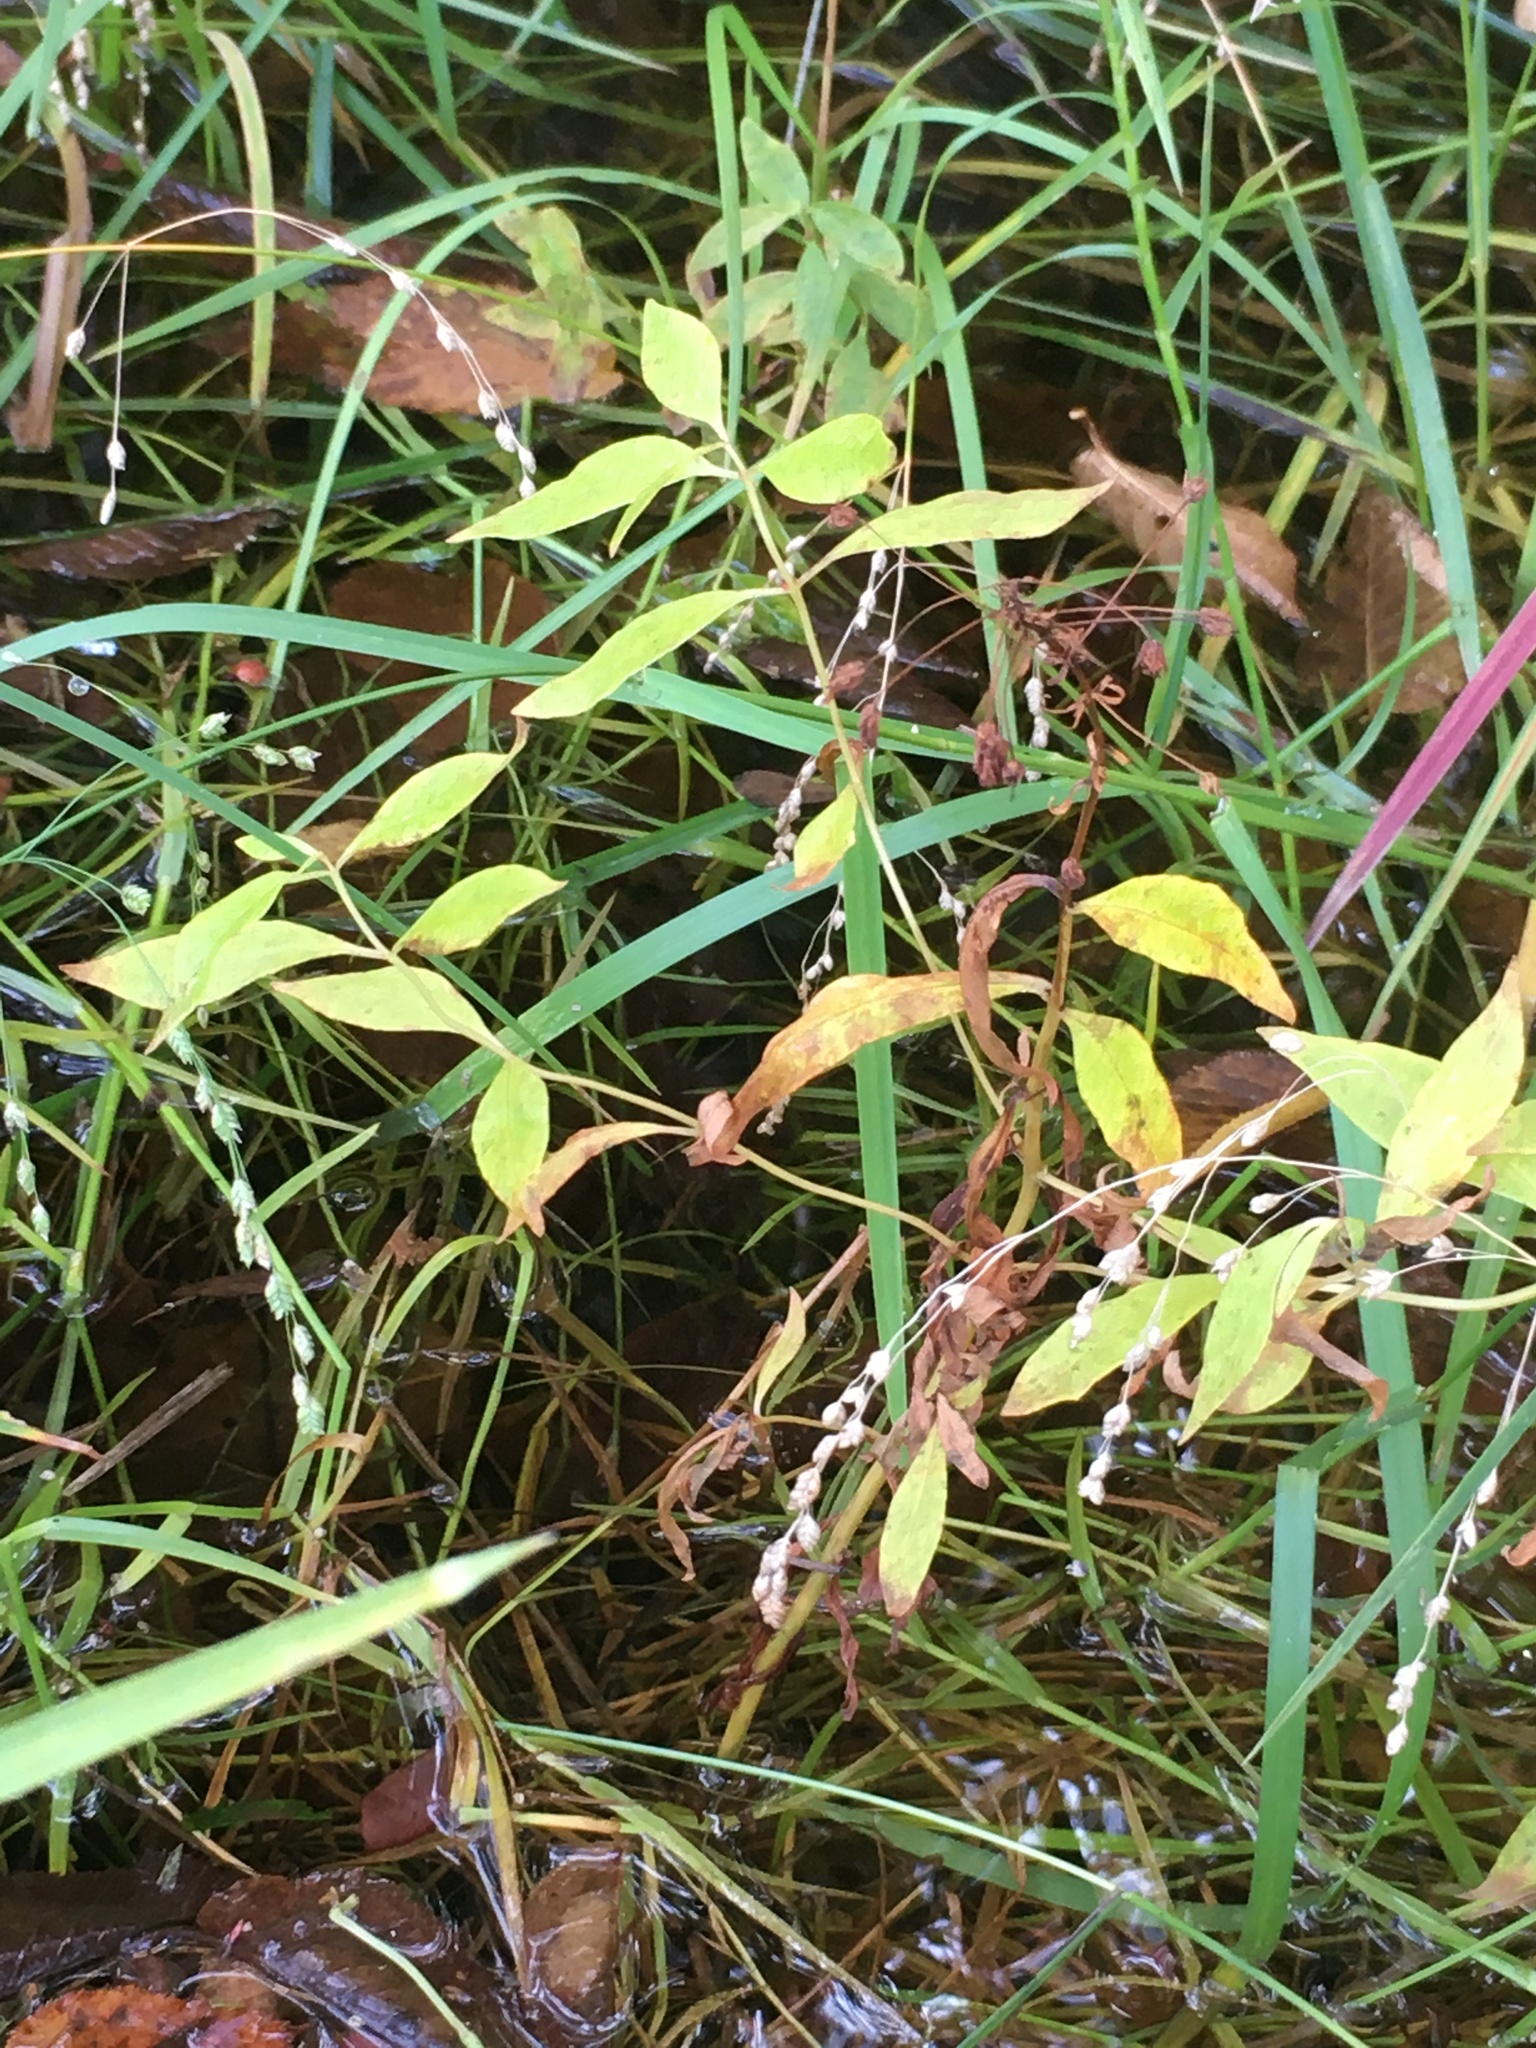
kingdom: Plantae
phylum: Tracheophyta
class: Magnoliopsida
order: Ericales
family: Primulaceae
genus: Lysimachia
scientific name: Lysimachia terrestris
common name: Lake loosestrife
